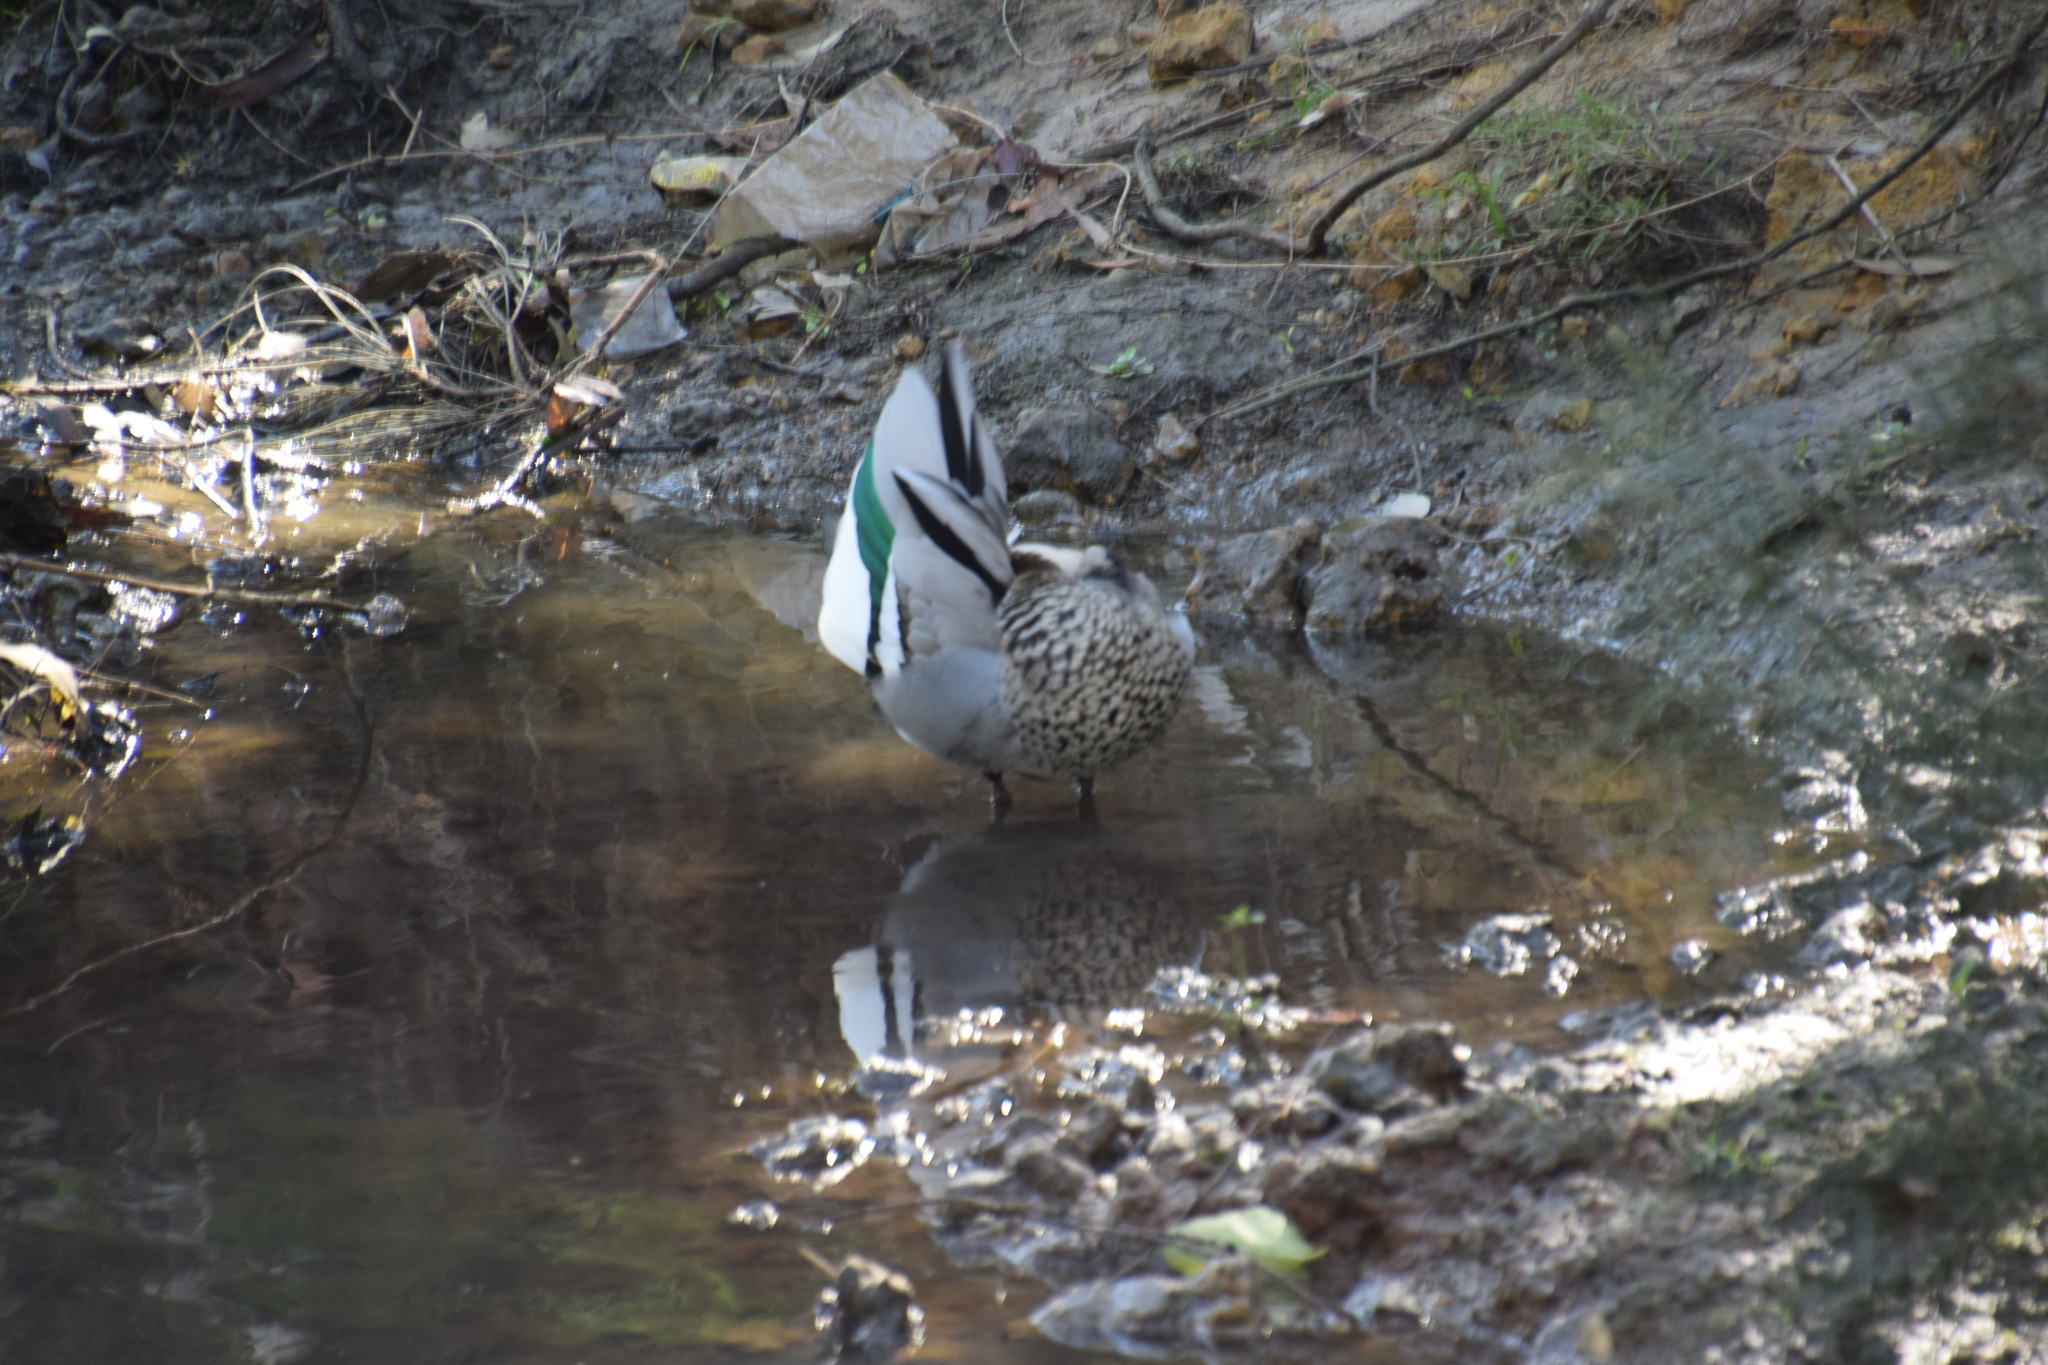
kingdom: Animalia
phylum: Chordata
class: Aves
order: Anseriformes
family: Anatidae
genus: Chenonetta
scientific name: Chenonetta jubata
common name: Maned duck
